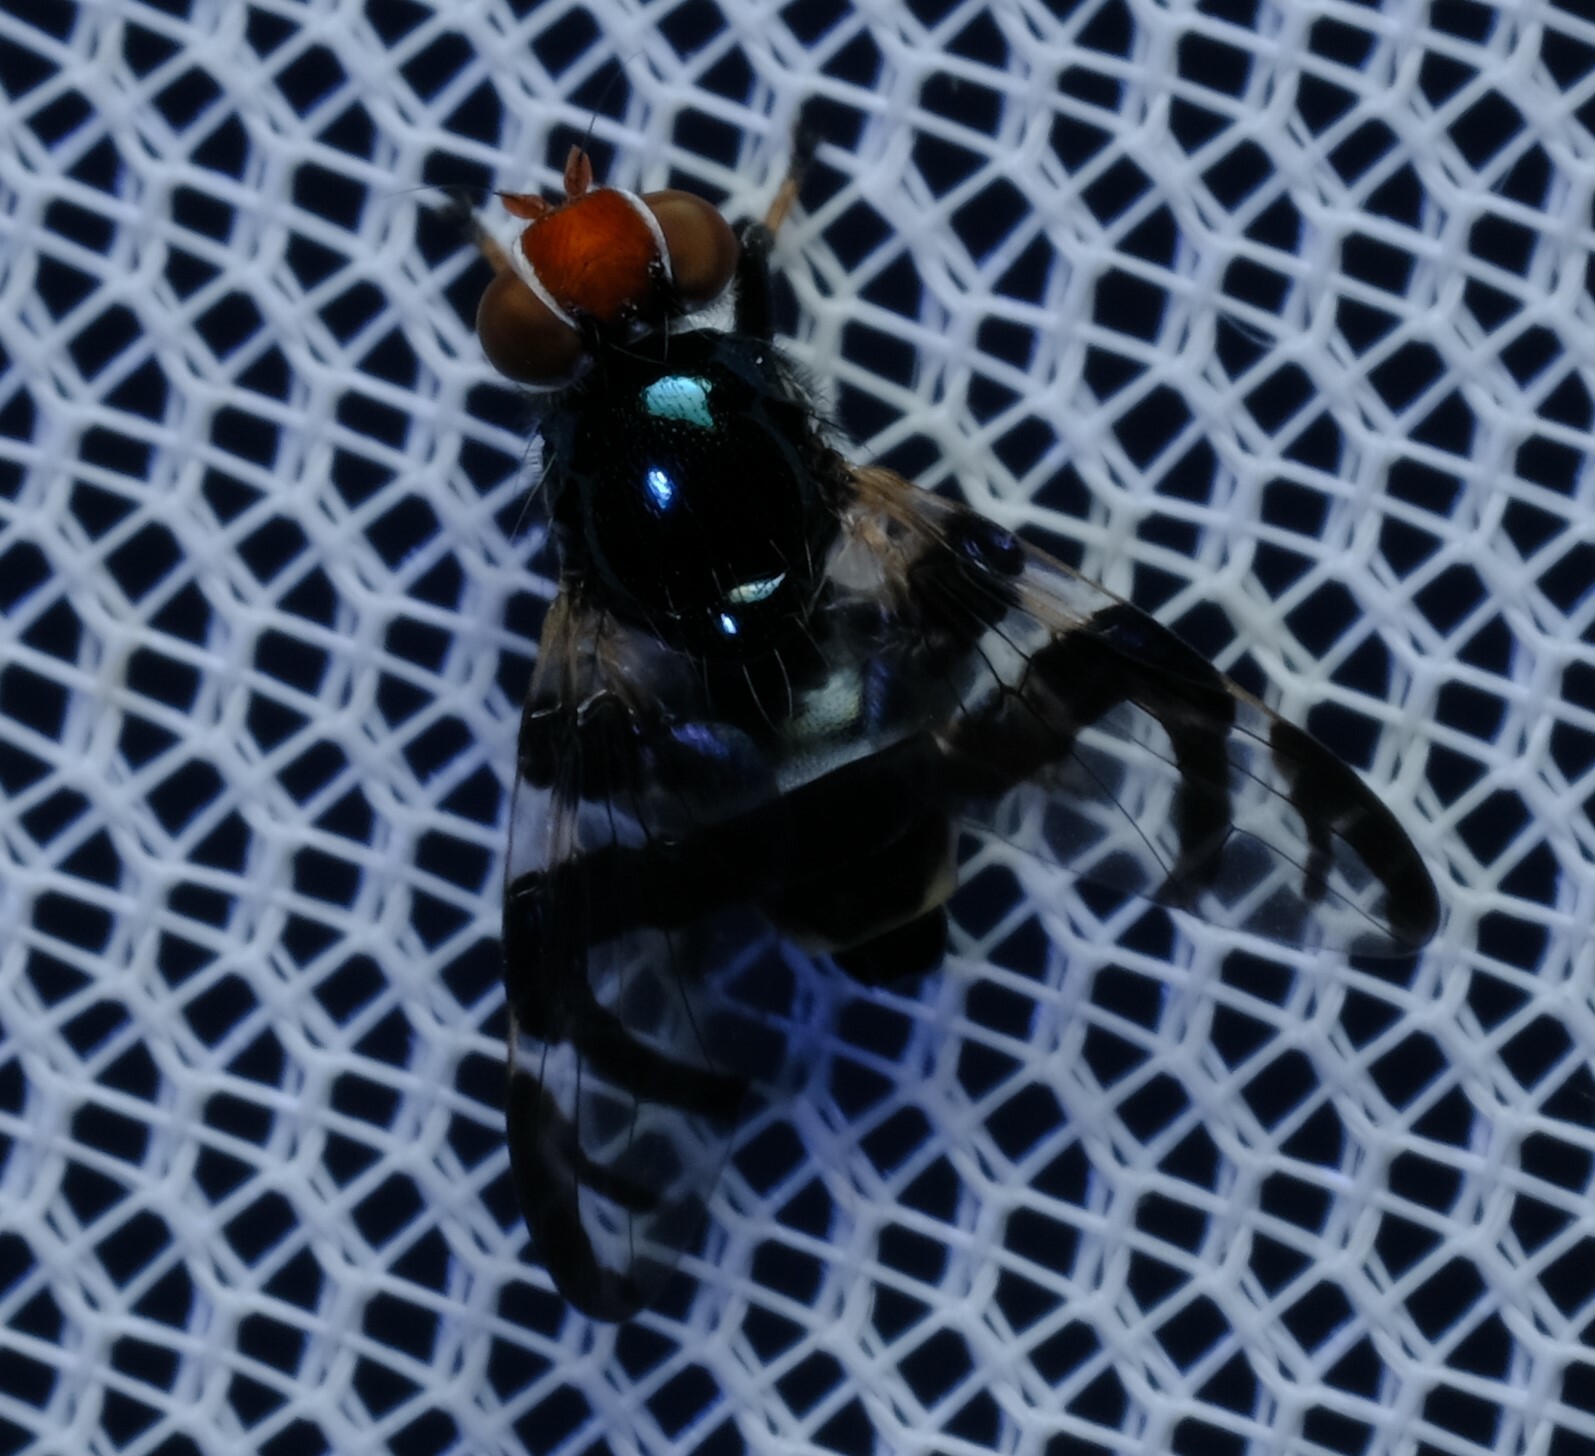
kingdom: Animalia
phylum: Arthropoda
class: Insecta
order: Diptera
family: Platystomatidae
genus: Lenophila
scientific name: Lenophila achilles
